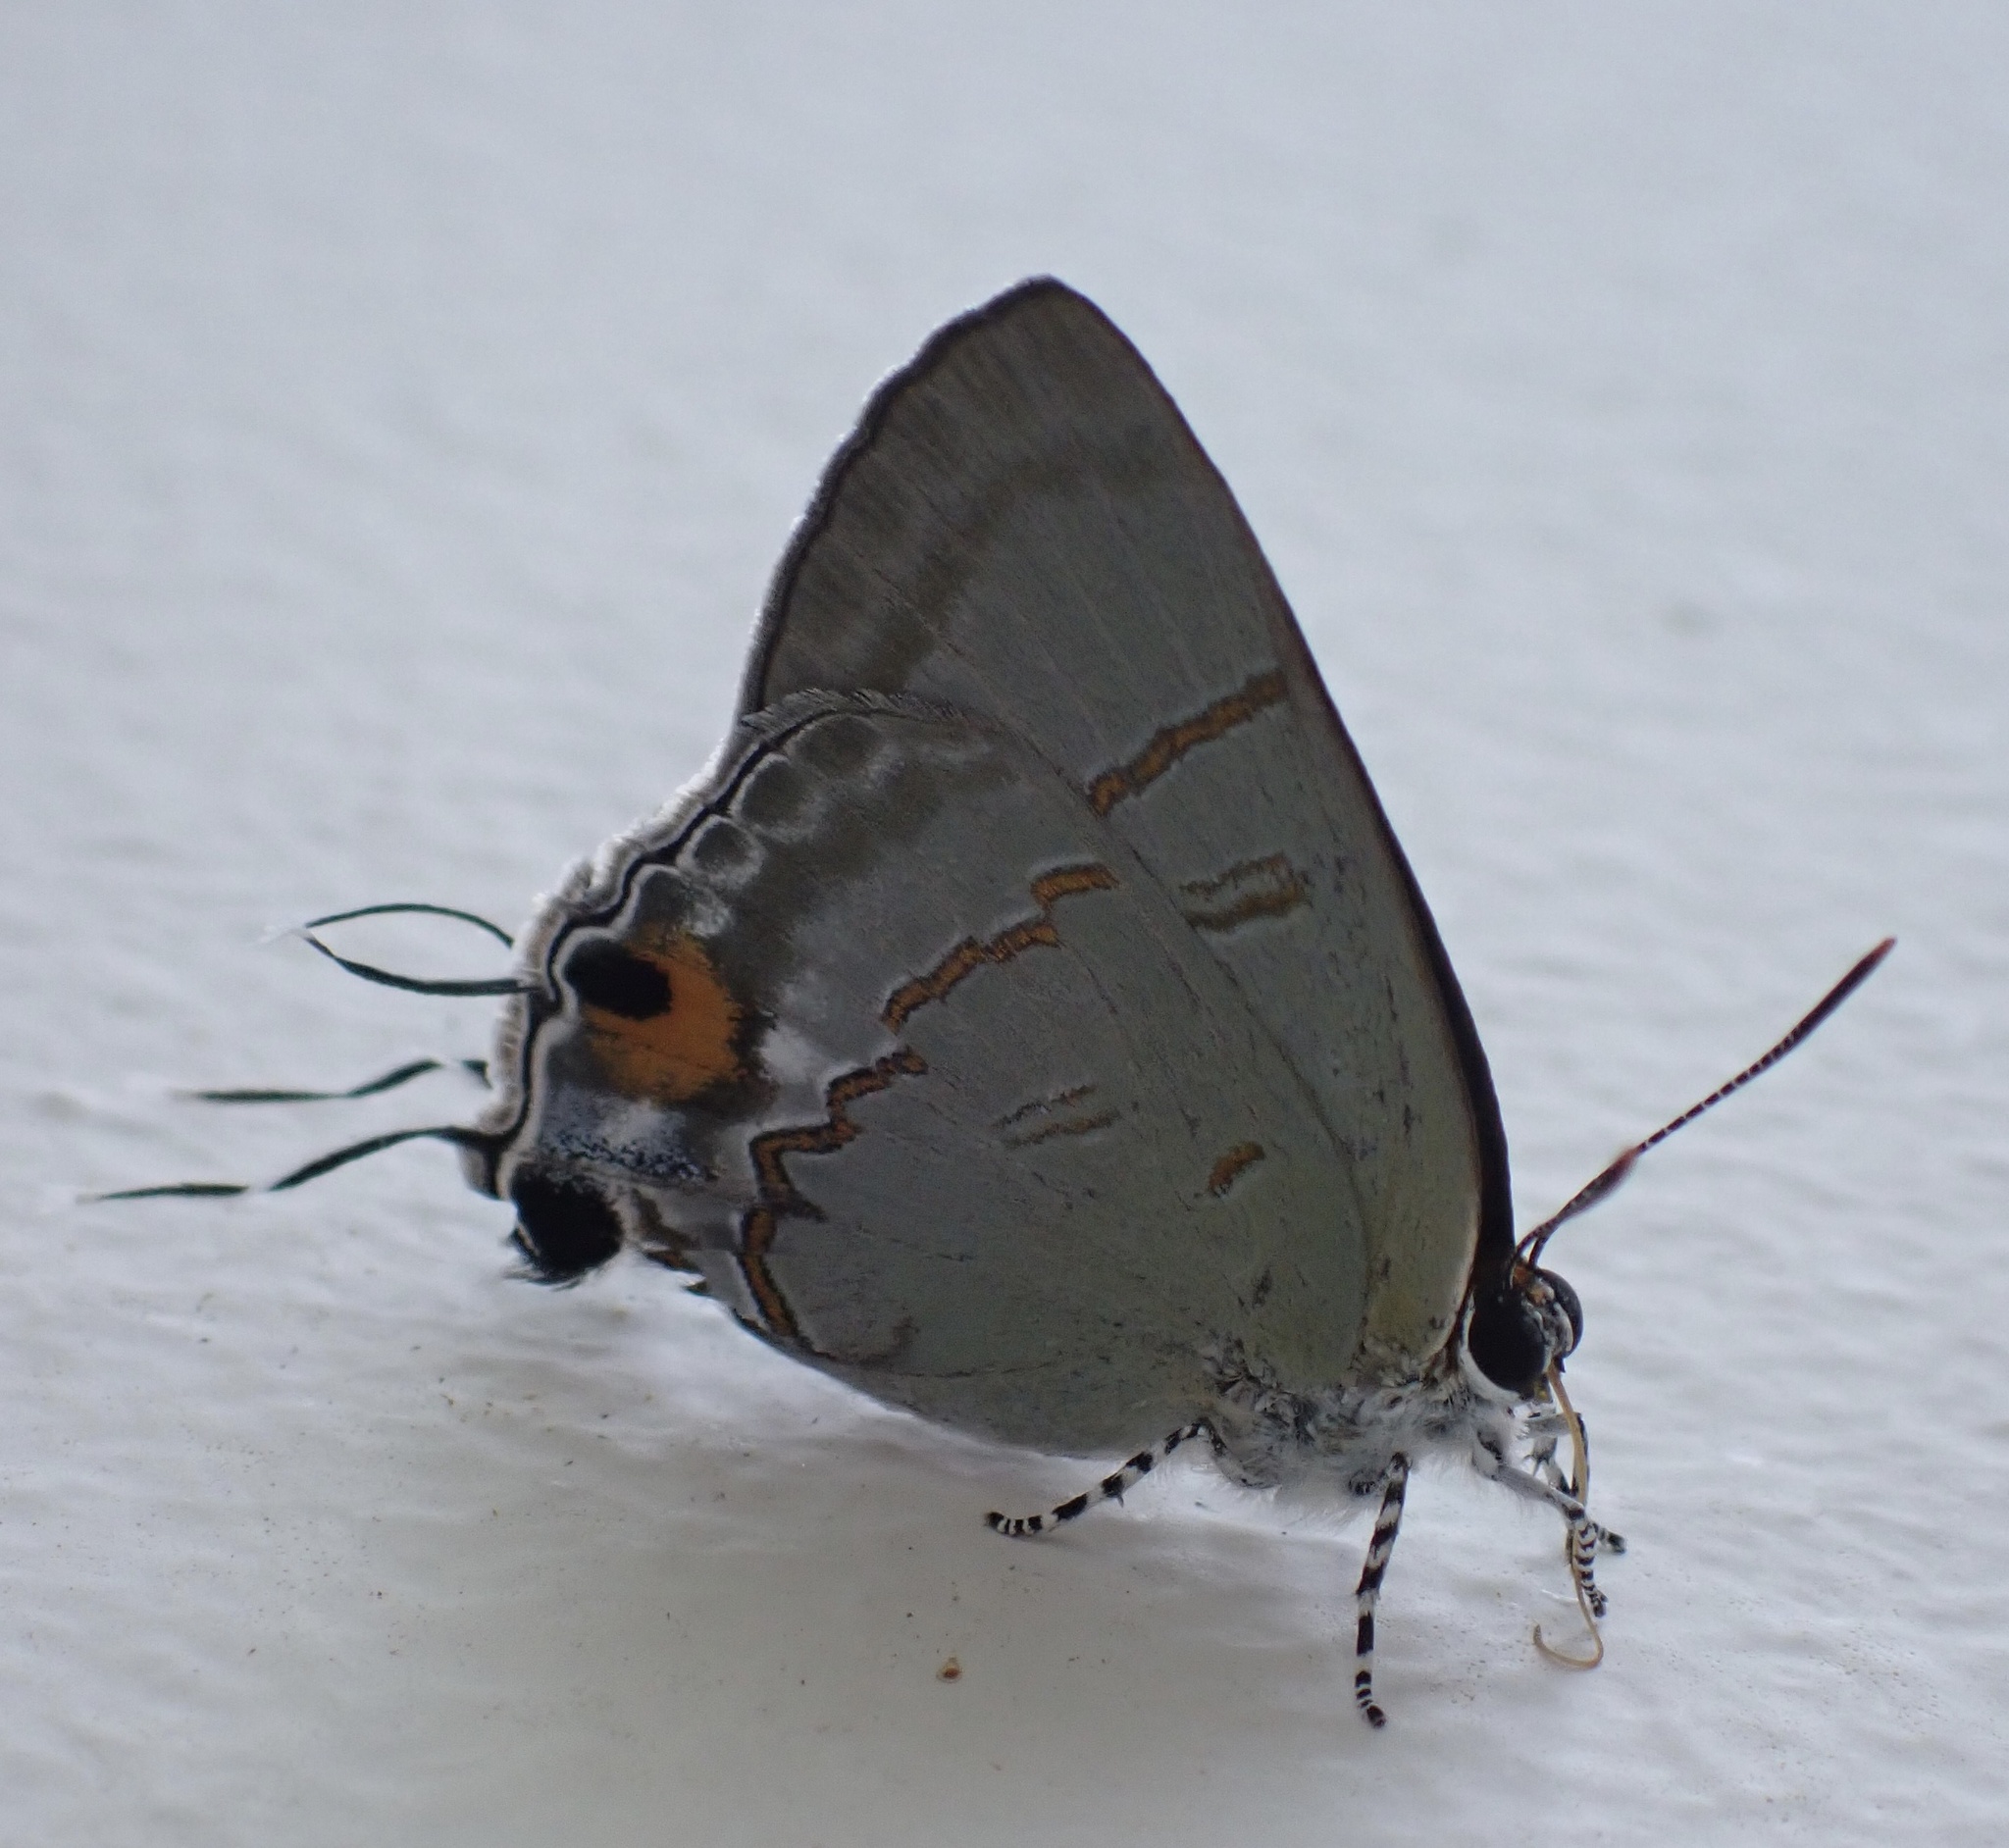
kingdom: Animalia
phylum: Arthropoda
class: Insecta
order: Lepidoptera
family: Lycaenidae
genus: Hypolycaena
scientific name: Hypolycaena erylus
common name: Common tit
